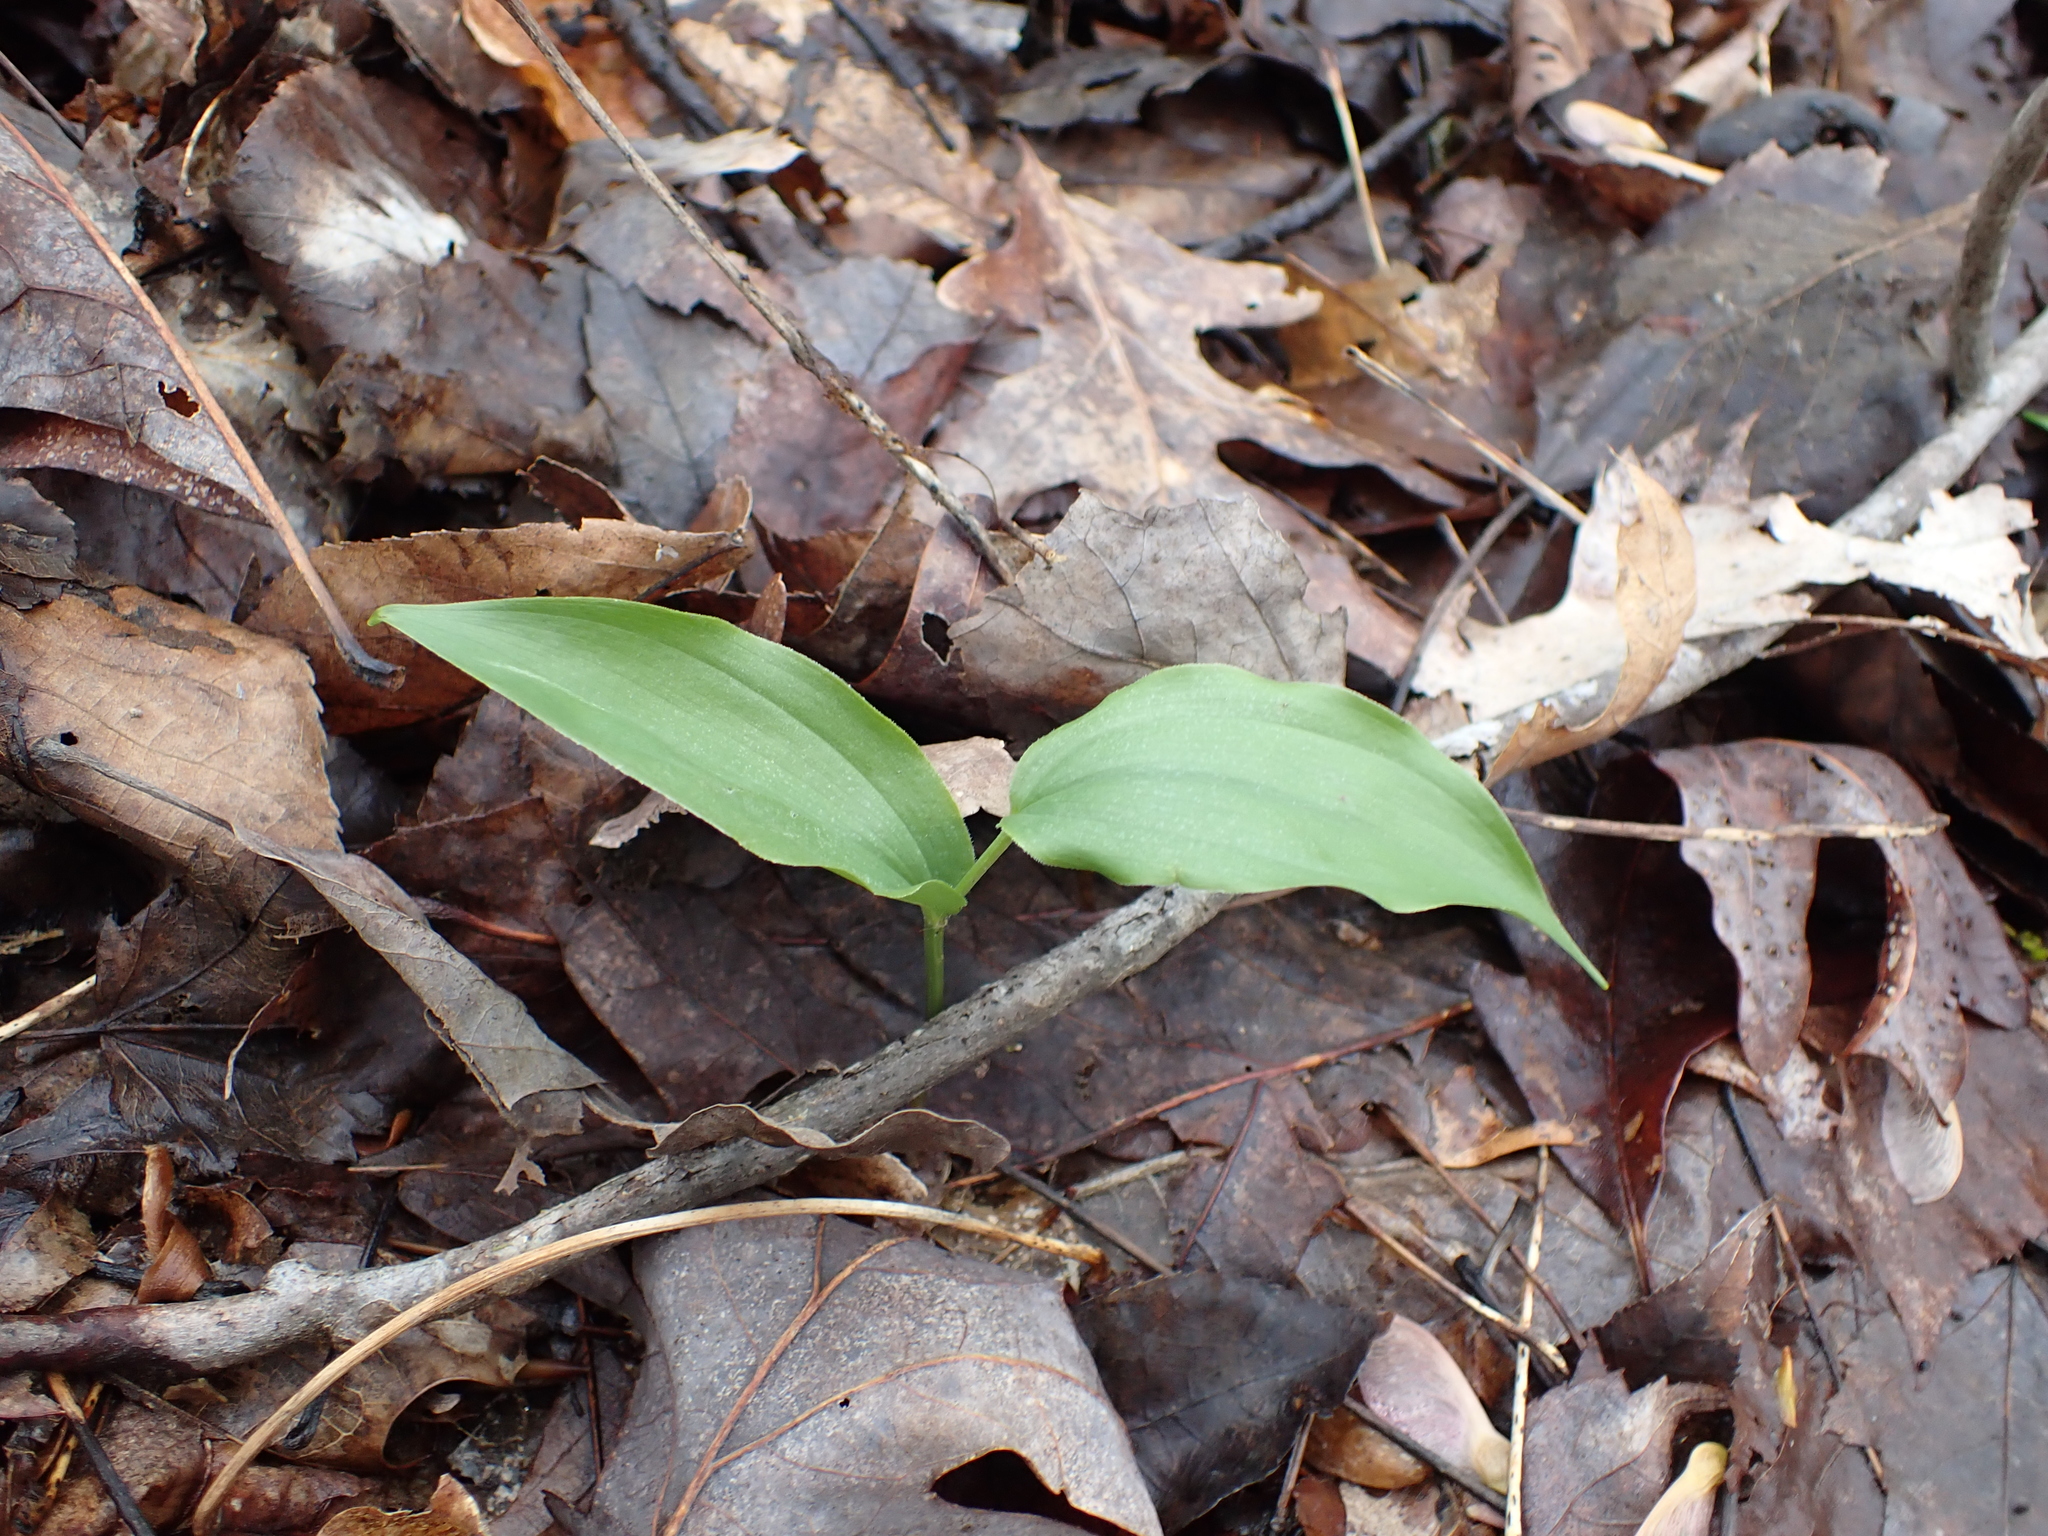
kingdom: Plantae
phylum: Tracheophyta
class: Liliopsida
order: Asparagales
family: Asparagaceae
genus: Maianthemum
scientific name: Maianthemum racemosum
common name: False spikenard
